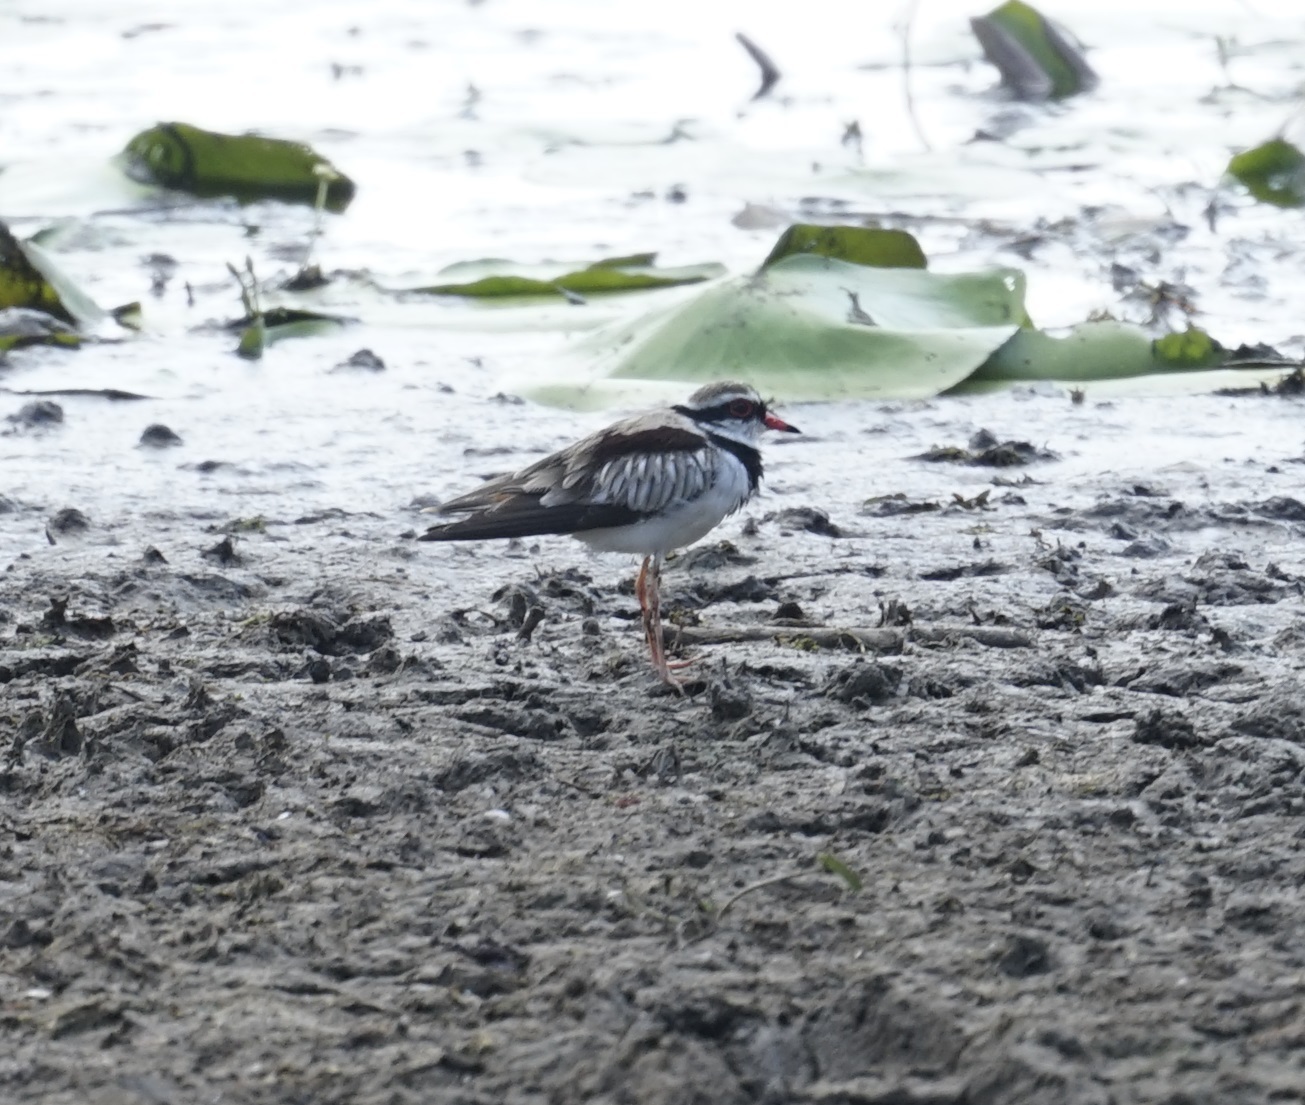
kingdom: Animalia
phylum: Chordata
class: Aves
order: Charadriiformes
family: Charadriidae
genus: Elseyornis
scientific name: Elseyornis melanops
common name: Black-fronted dotterel
